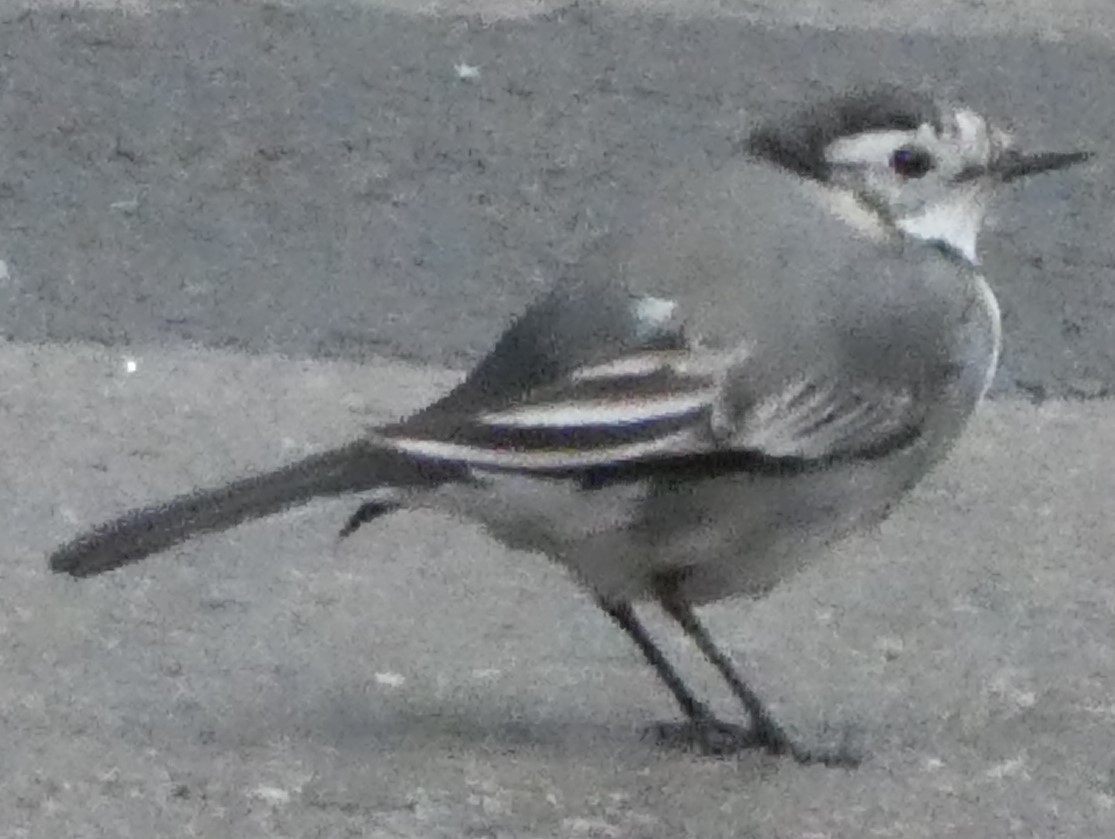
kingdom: Animalia
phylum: Chordata
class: Aves
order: Passeriformes
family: Motacillidae
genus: Motacilla
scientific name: Motacilla alba
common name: White wagtail
